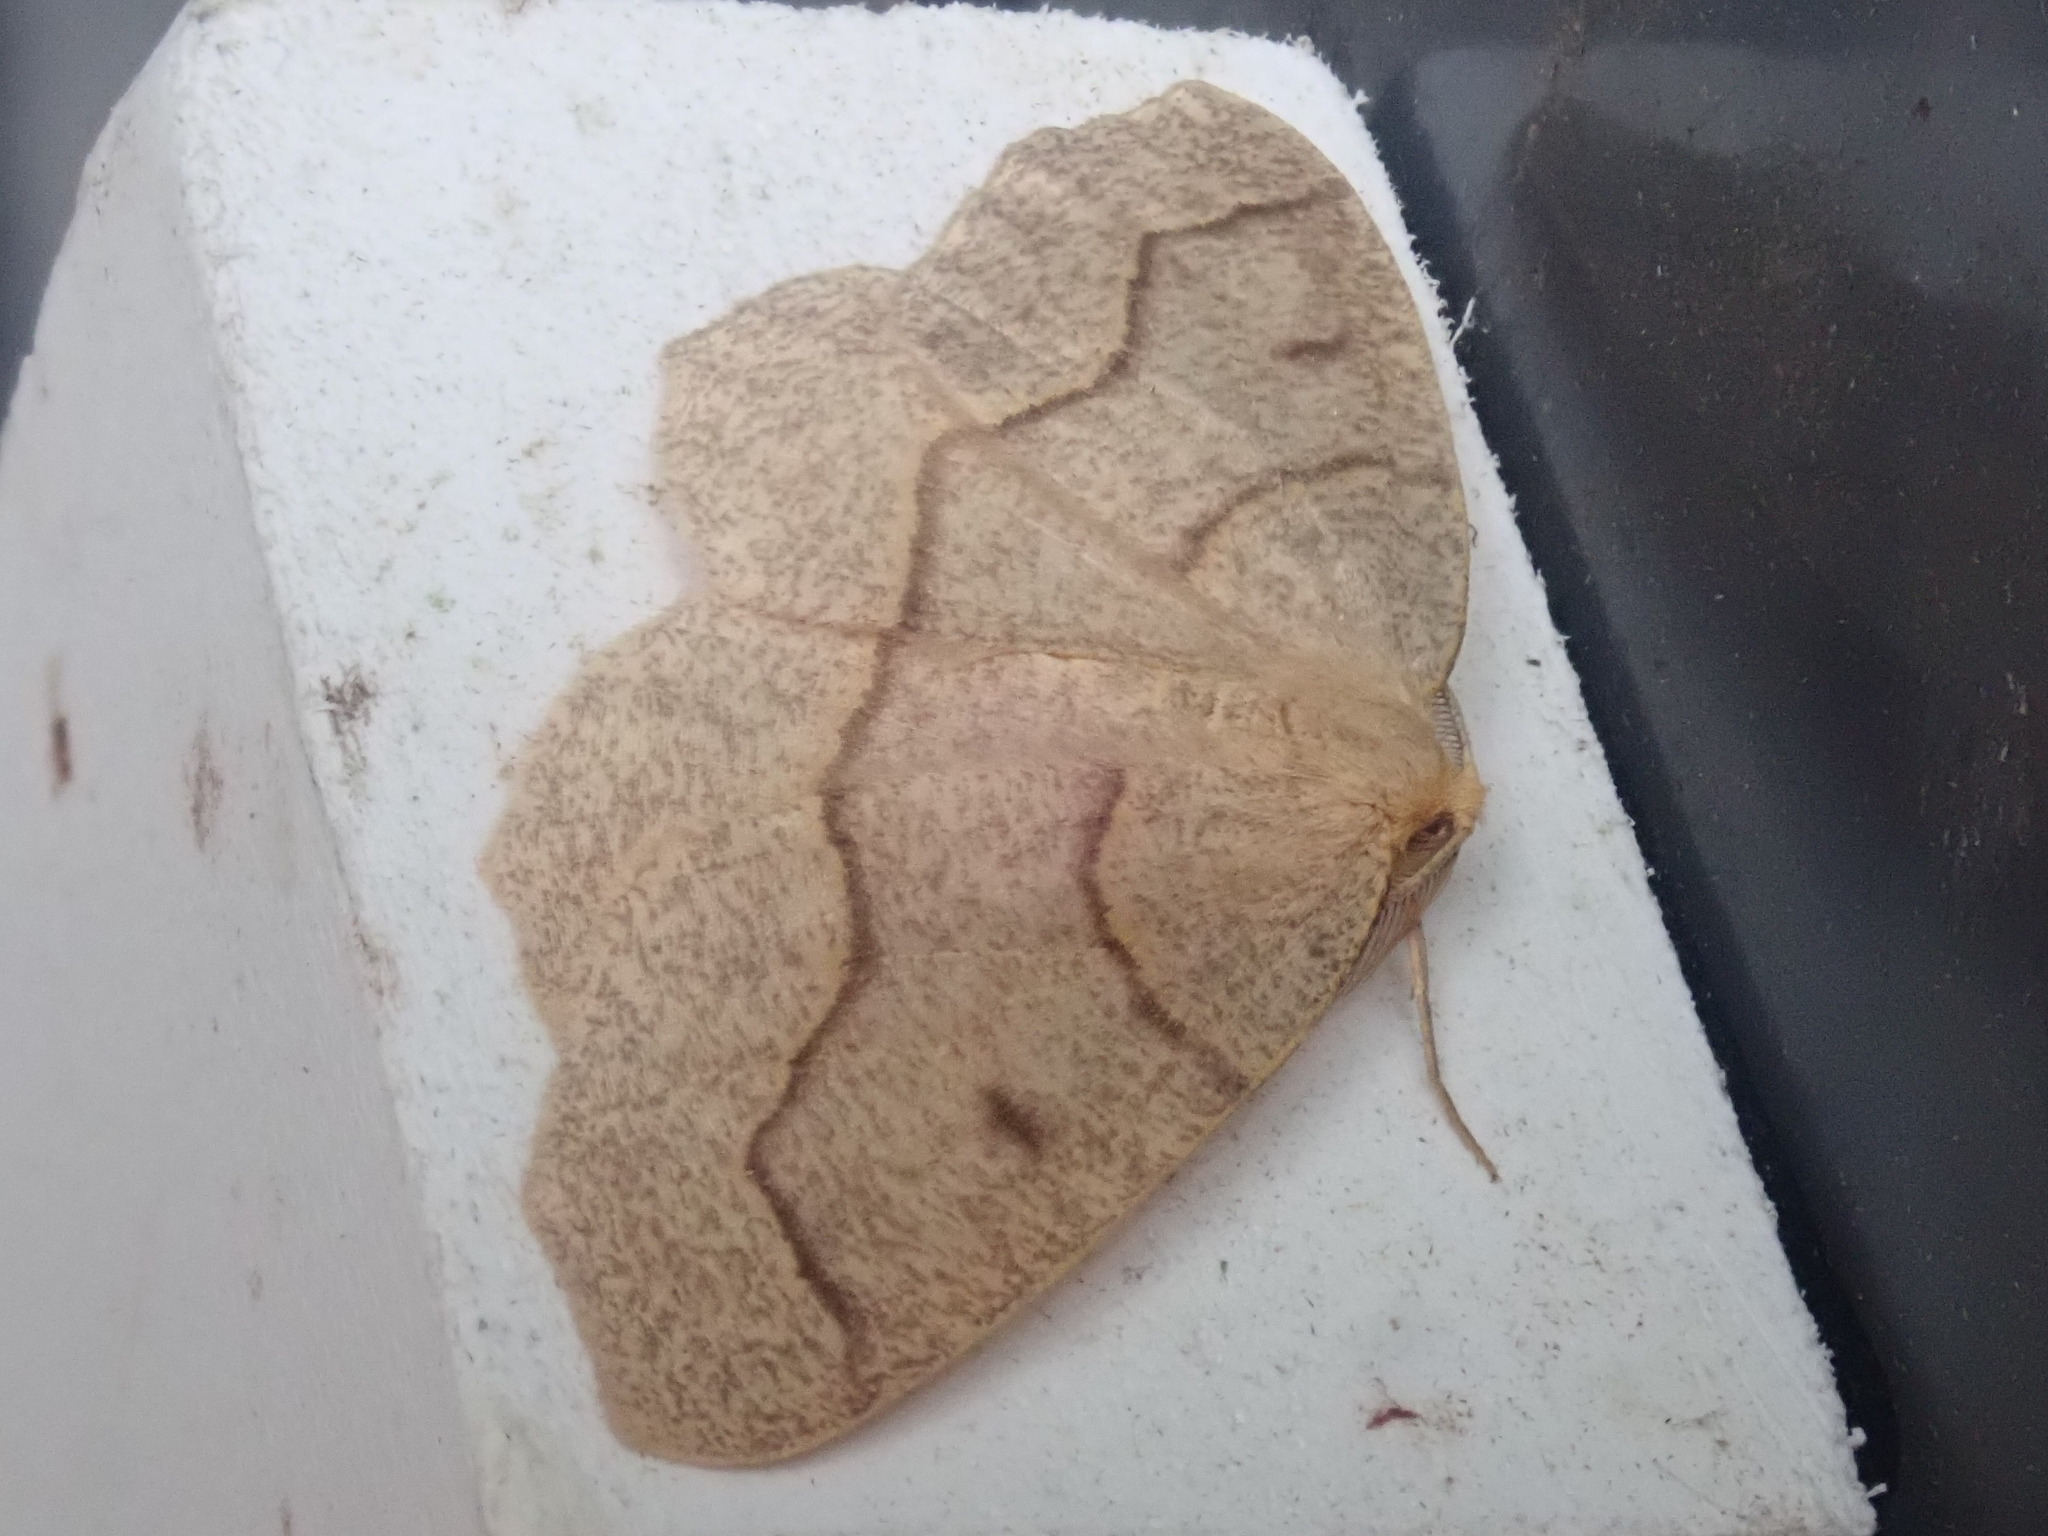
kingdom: Animalia
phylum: Arthropoda
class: Insecta
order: Lepidoptera
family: Geometridae
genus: Lambdina
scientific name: Lambdina fiscellaria
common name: Hemlock looper
